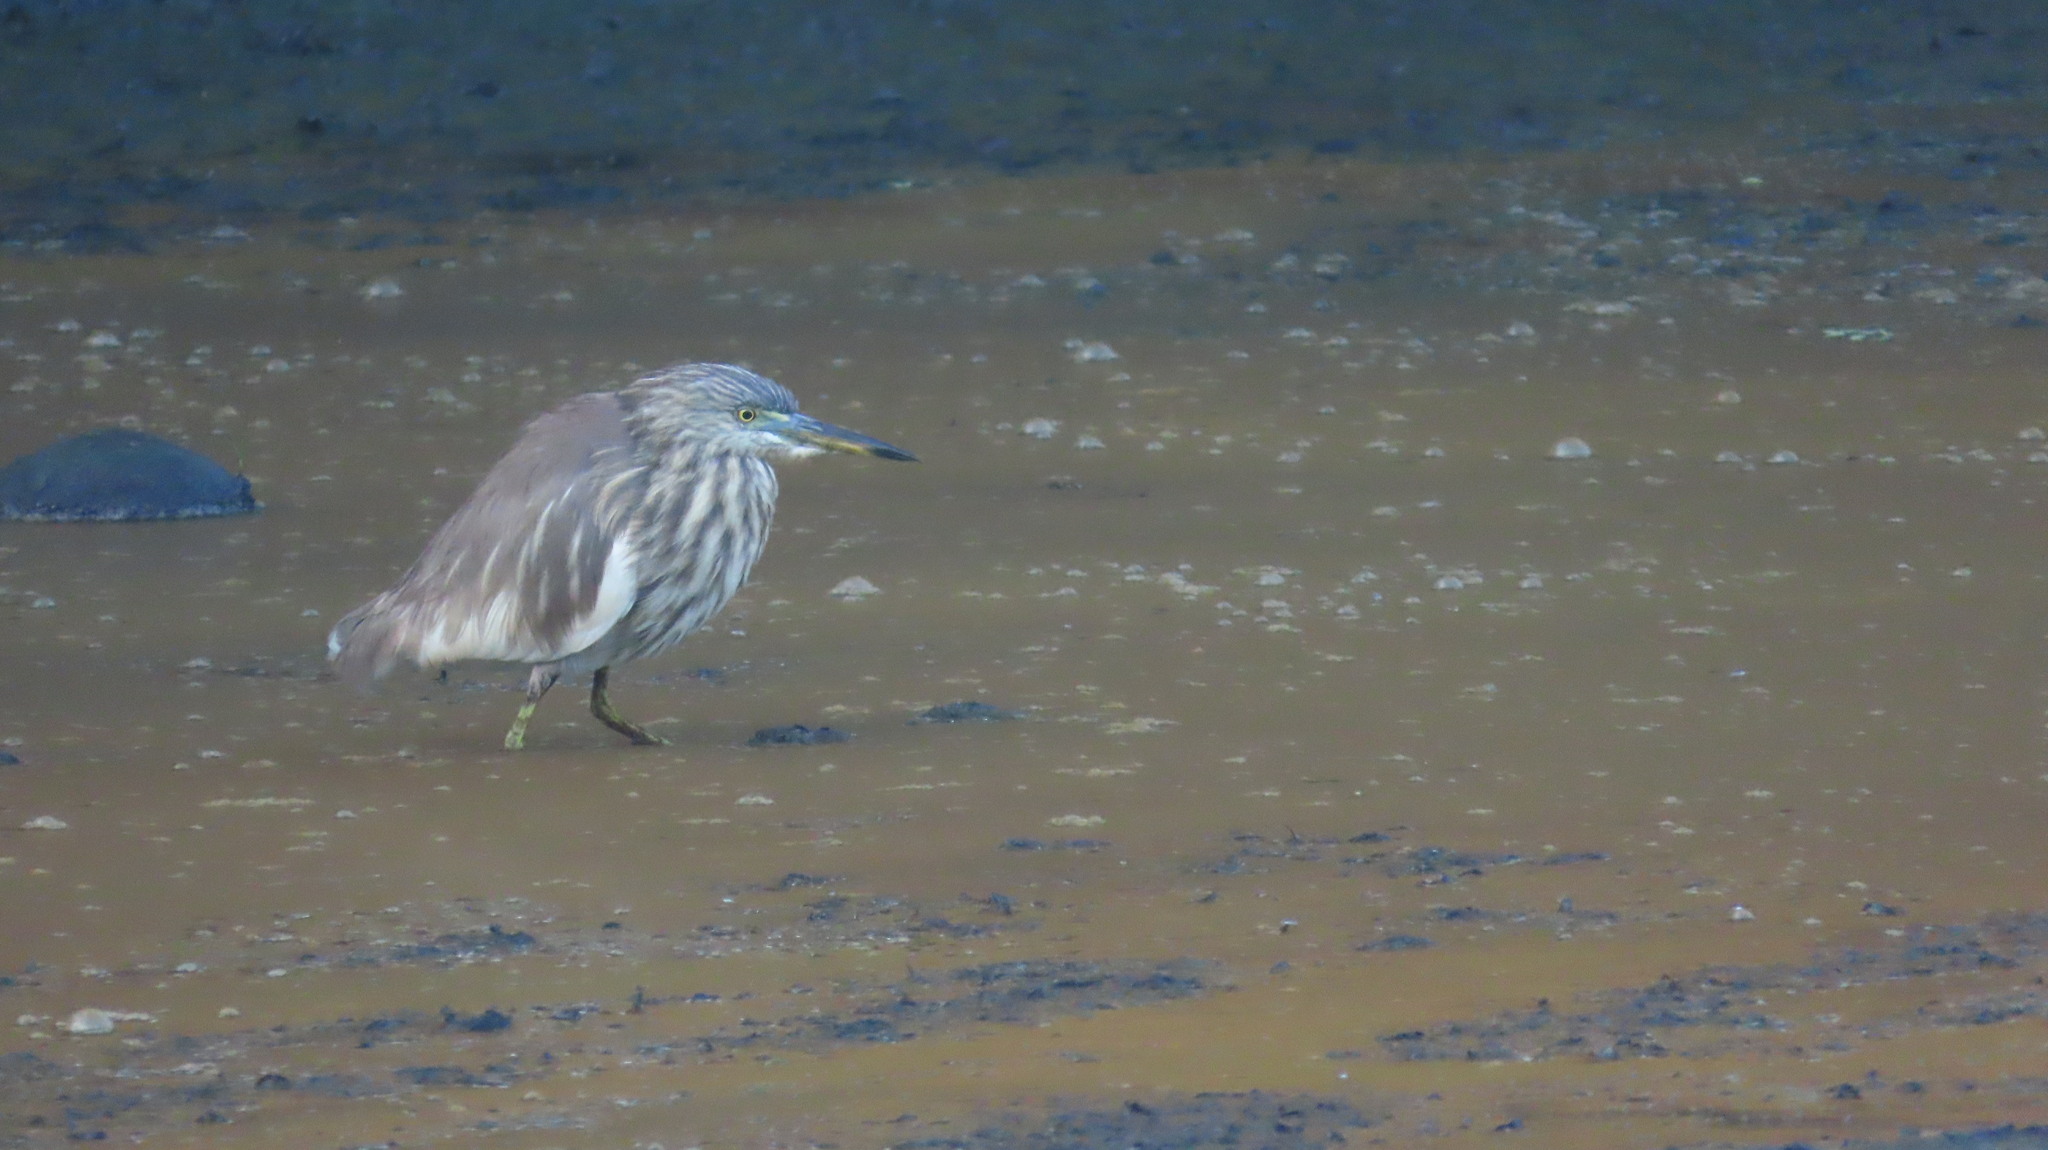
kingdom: Animalia
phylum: Chordata
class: Aves
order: Pelecaniformes
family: Ardeidae
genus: Ardeola
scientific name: Ardeola grayii
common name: Indian pond heron
